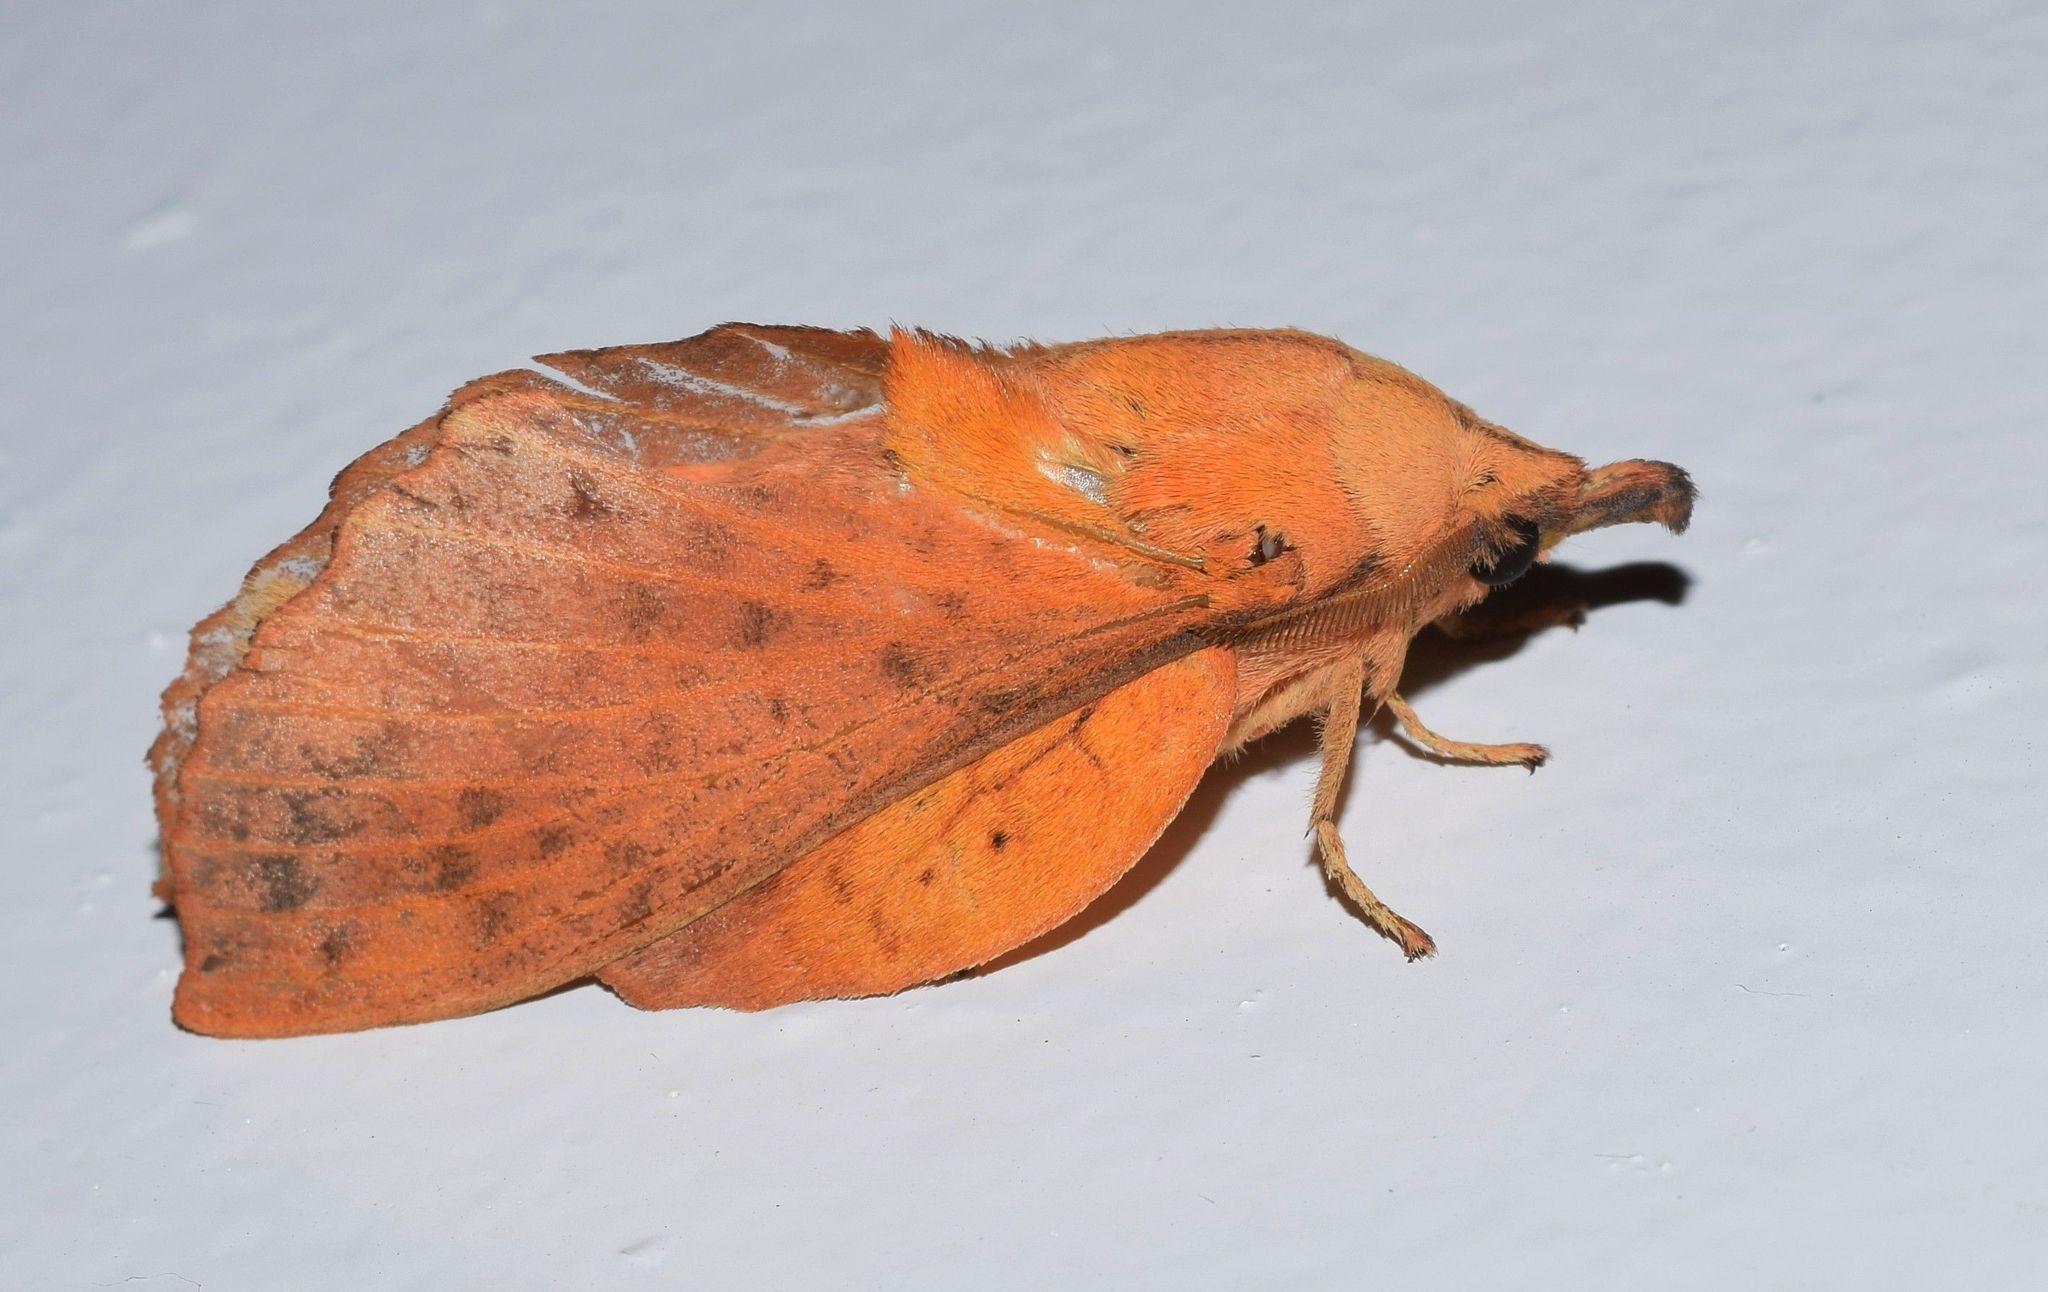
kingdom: Animalia
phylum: Arthropoda
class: Insecta
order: Lepidoptera
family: Lasiocampidae
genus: Gastropacha
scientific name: Gastropacha populifolia
